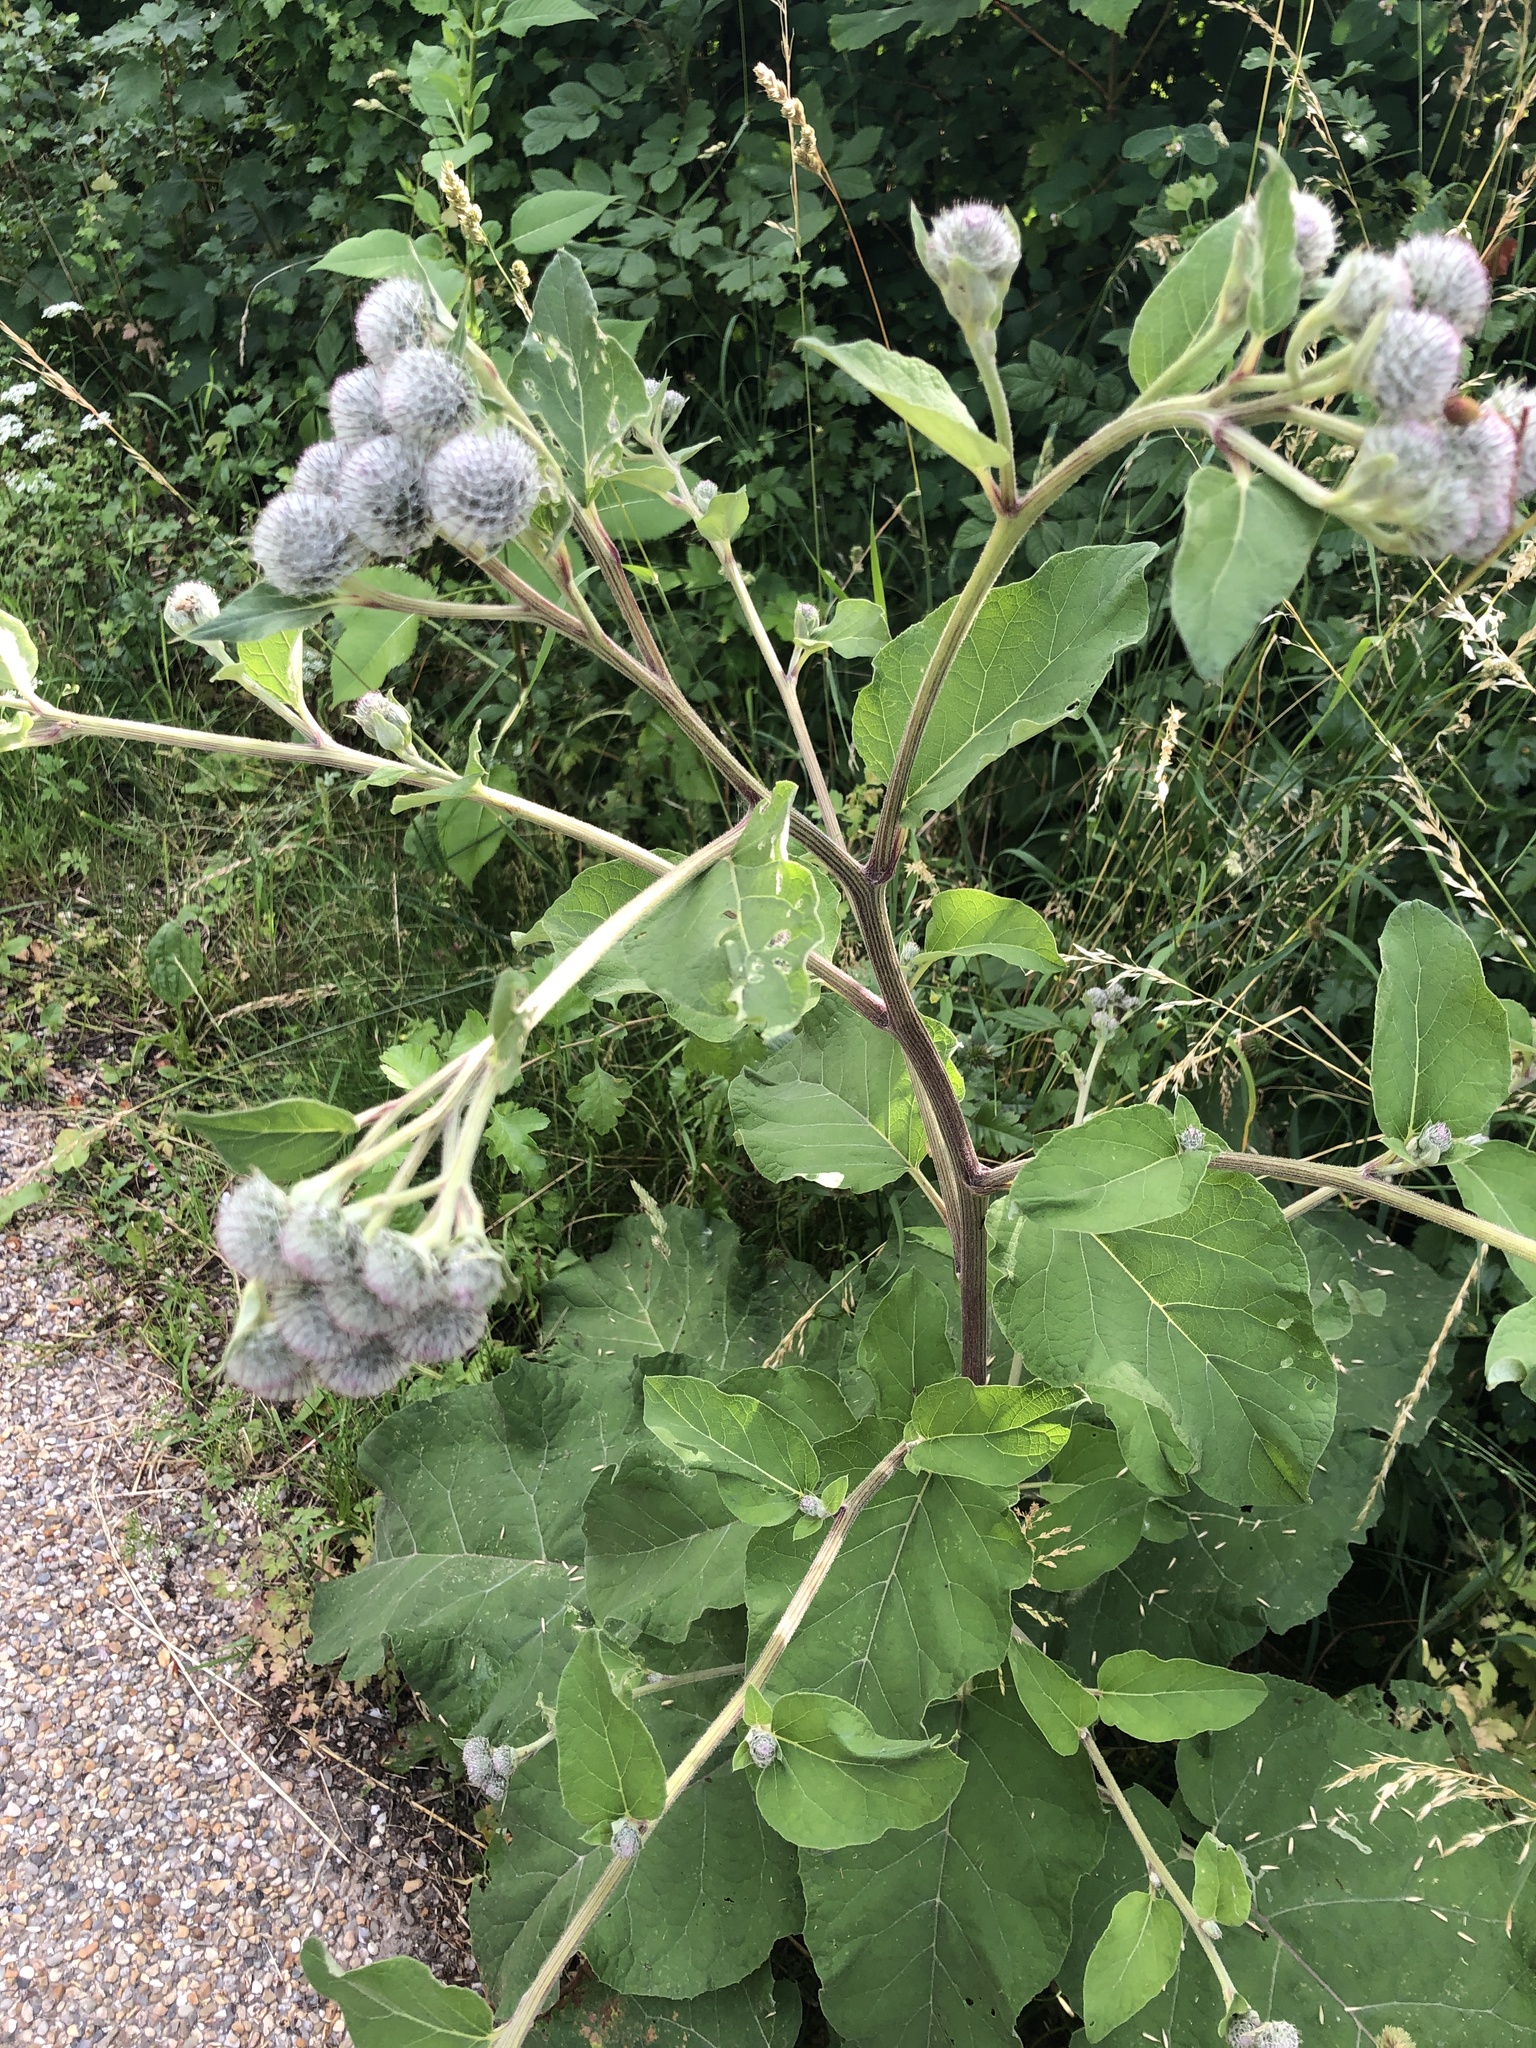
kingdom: Plantae
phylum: Tracheophyta
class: Magnoliopsida
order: Asterales
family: Asteraceae
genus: Arctium
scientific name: Arctium tomentosum
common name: Woolly burdock
